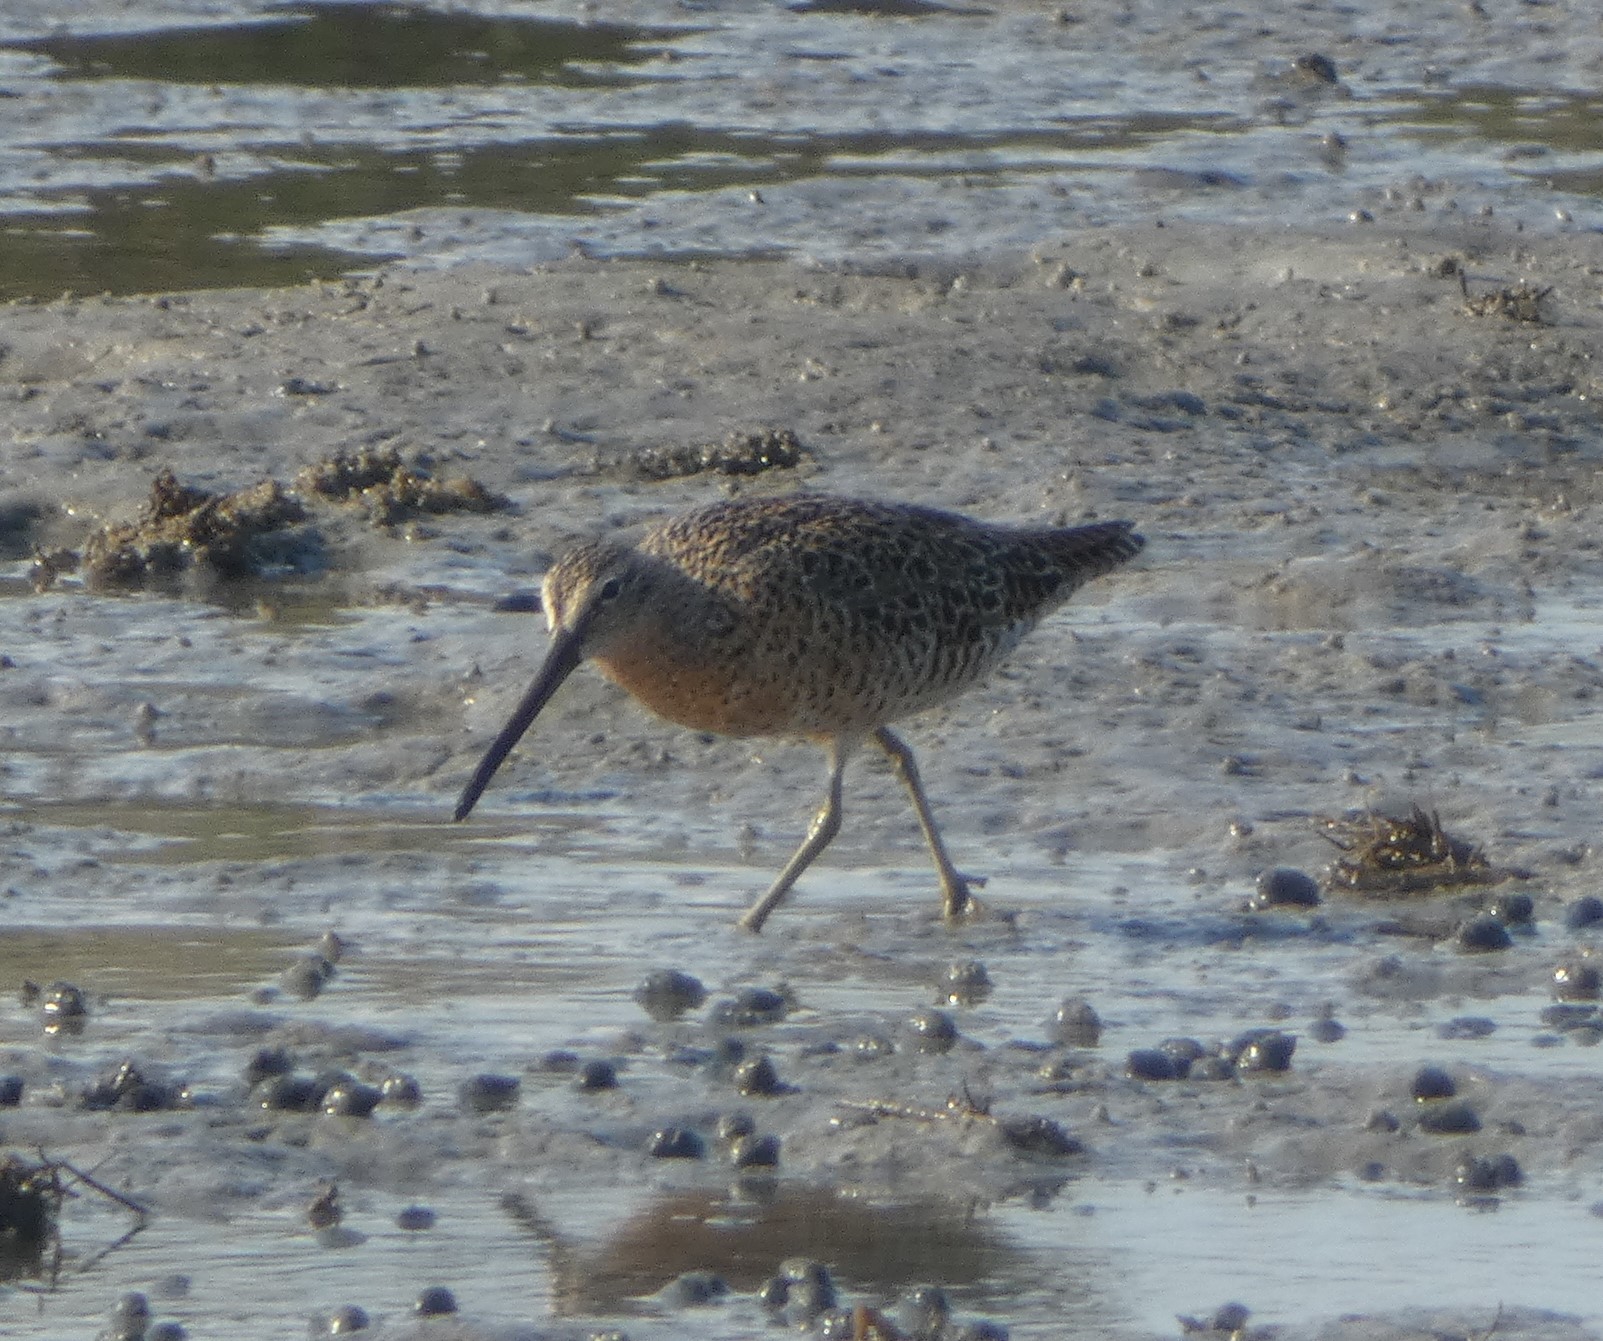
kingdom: Animalia
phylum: Chordata
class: Aves
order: Charadriiformes
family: Scolopacidae
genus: Limnodromus
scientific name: Limnodromus griseus
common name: Short-billed dowitcher
